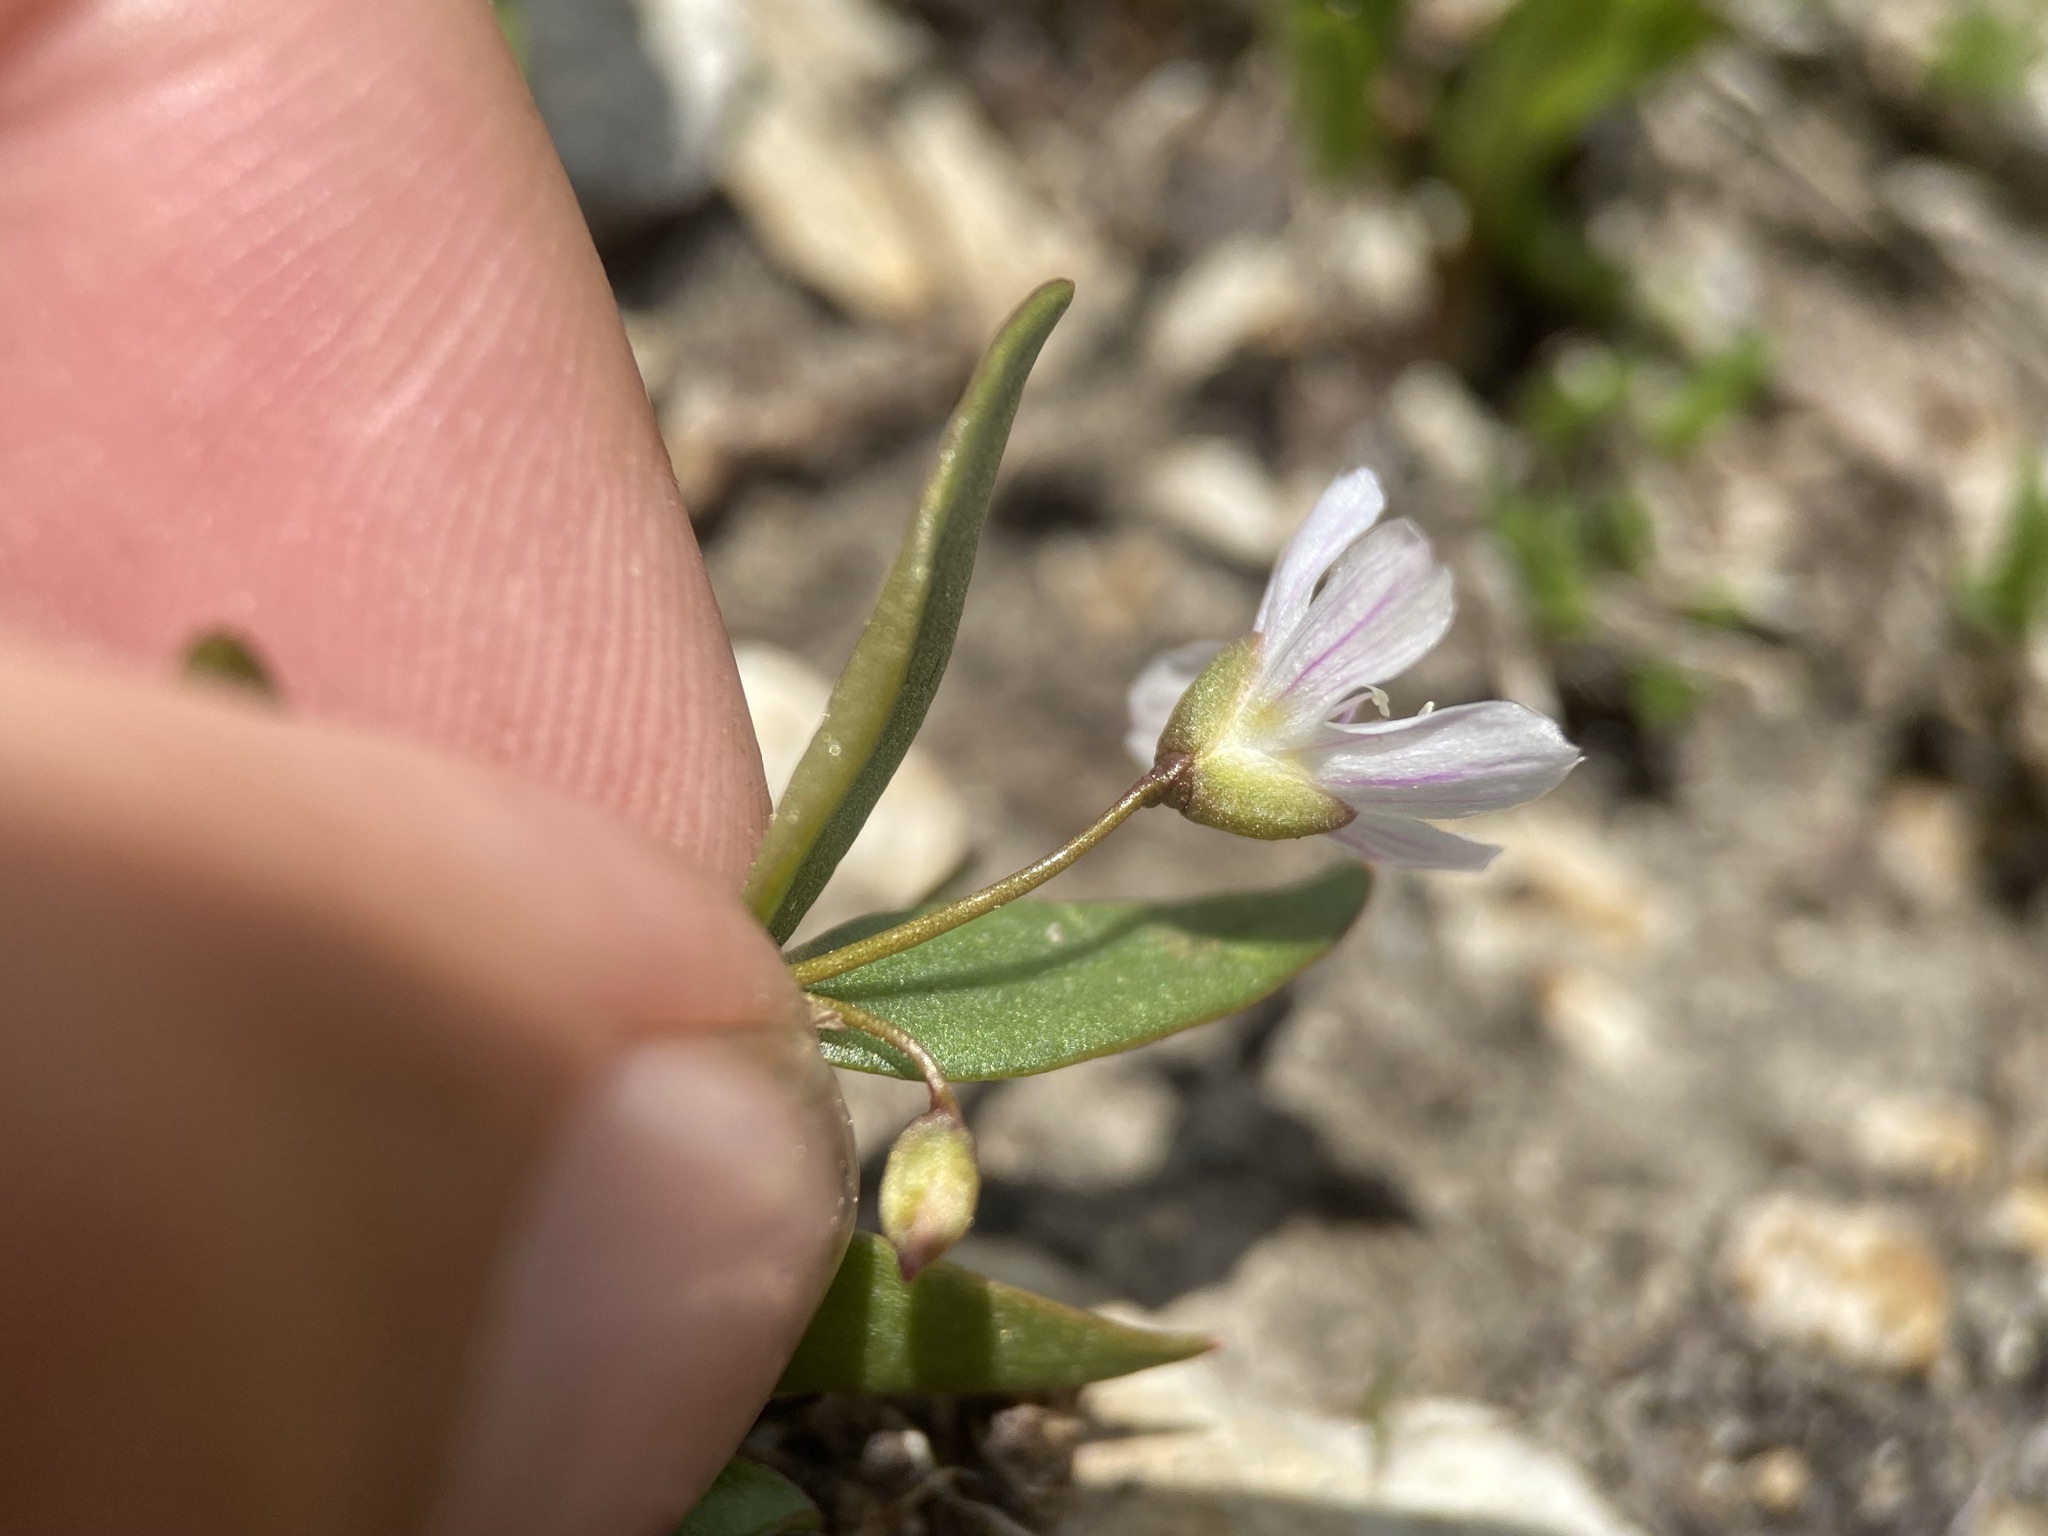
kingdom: Plantae
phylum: Tracheophyta
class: Magnoliopsida
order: Caryophyllales
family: Montiaceae
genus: Claytonia
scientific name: Claytonia lanceolata
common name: Western spring-beauty
